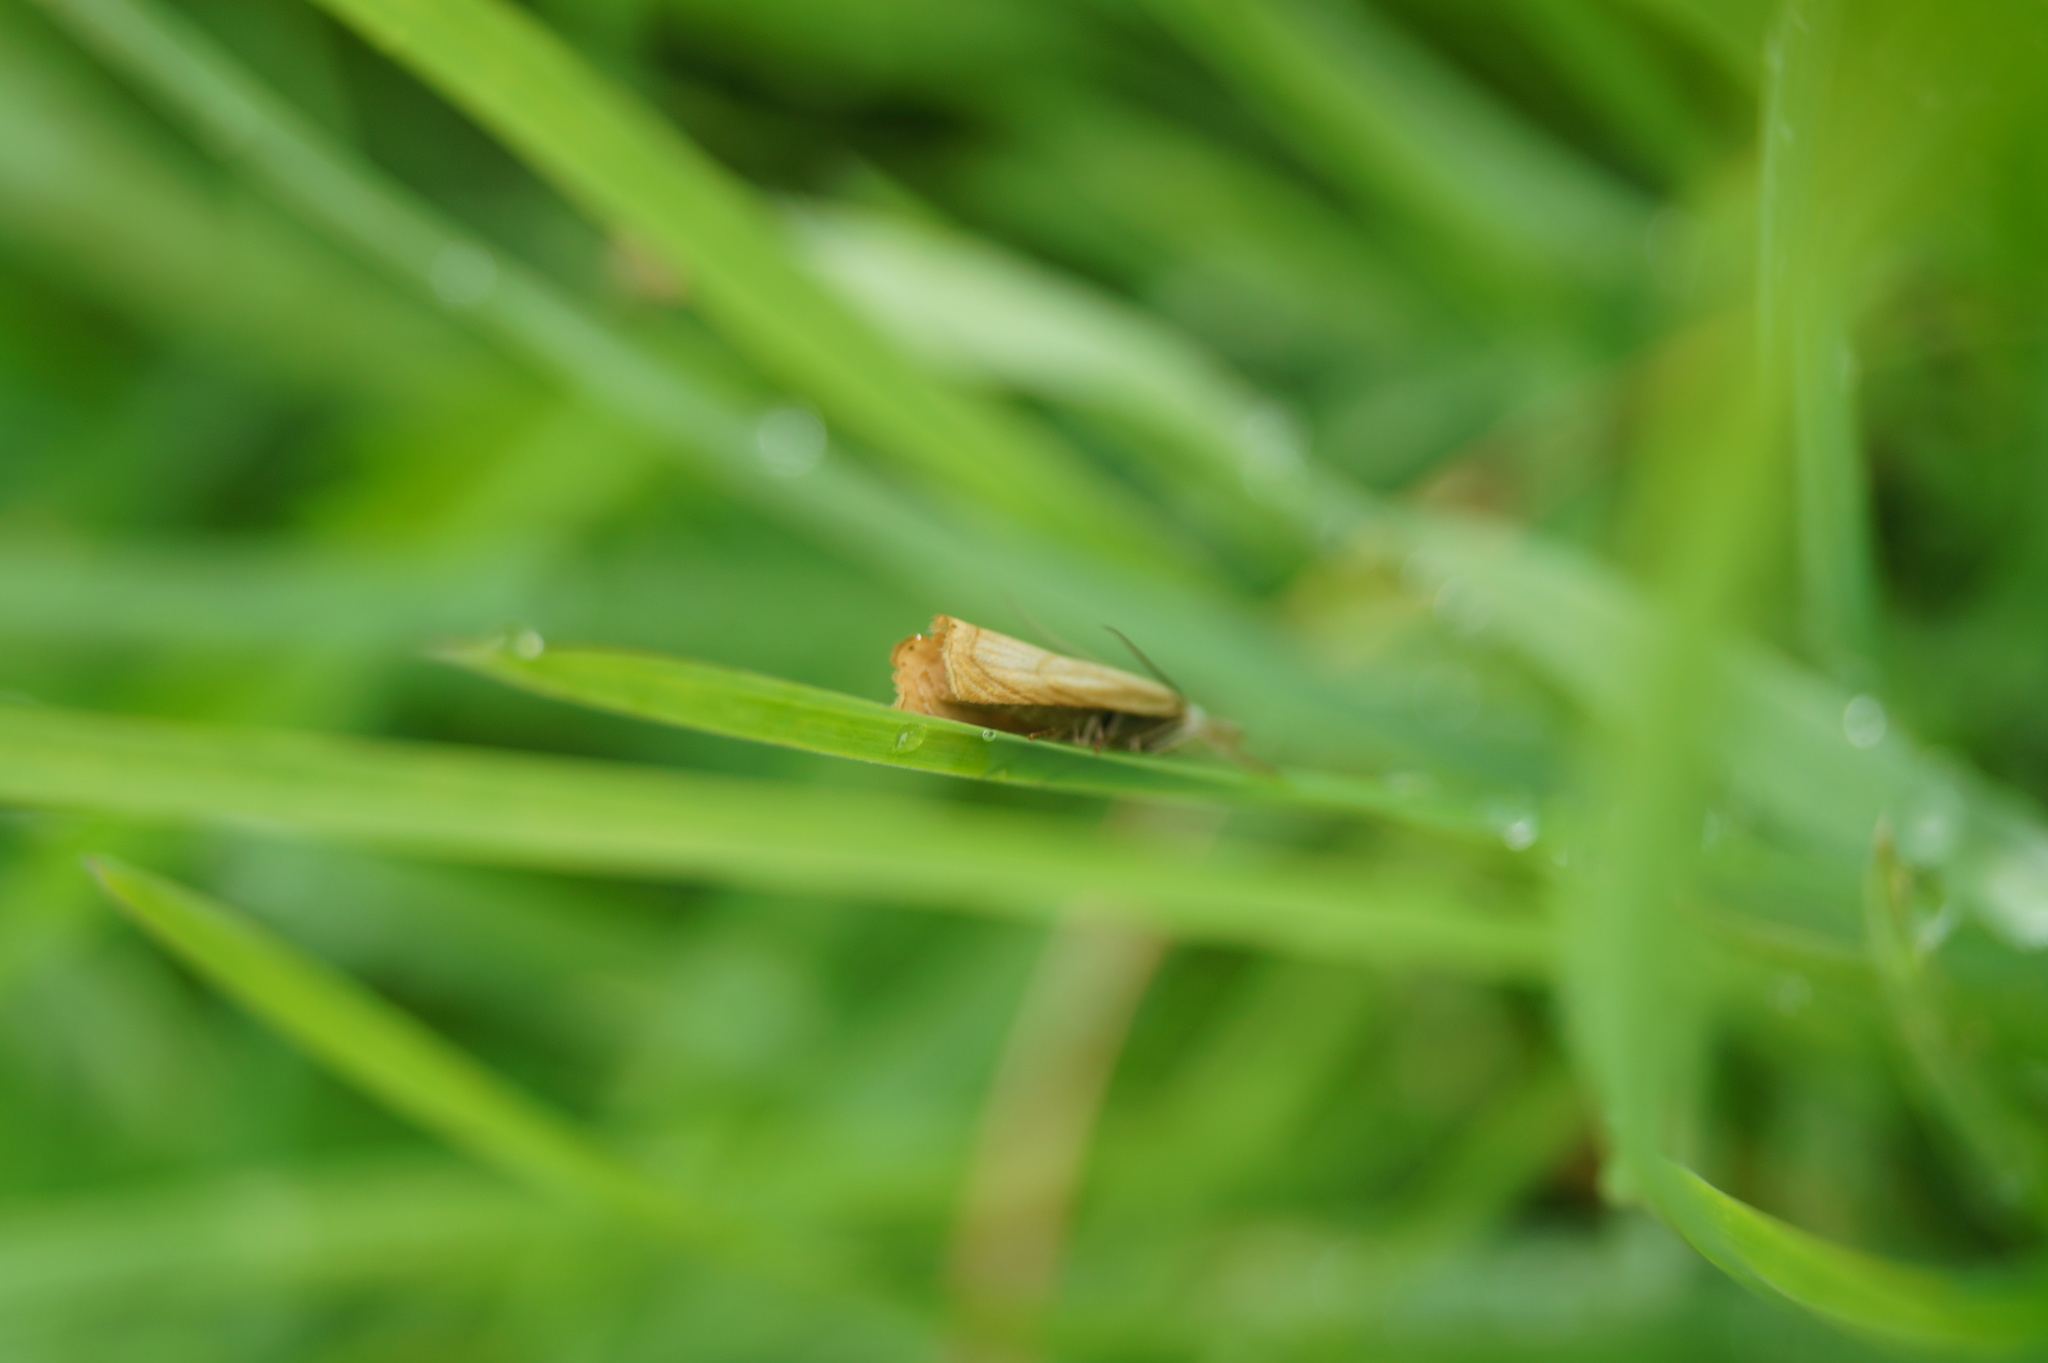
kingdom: Animalia
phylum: Arthropoda
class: Insecta
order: Lepidoptera
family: Crambidae
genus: Chrysoteuchia
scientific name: Chrysoteuchia culmella
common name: Garden grass-veneer
